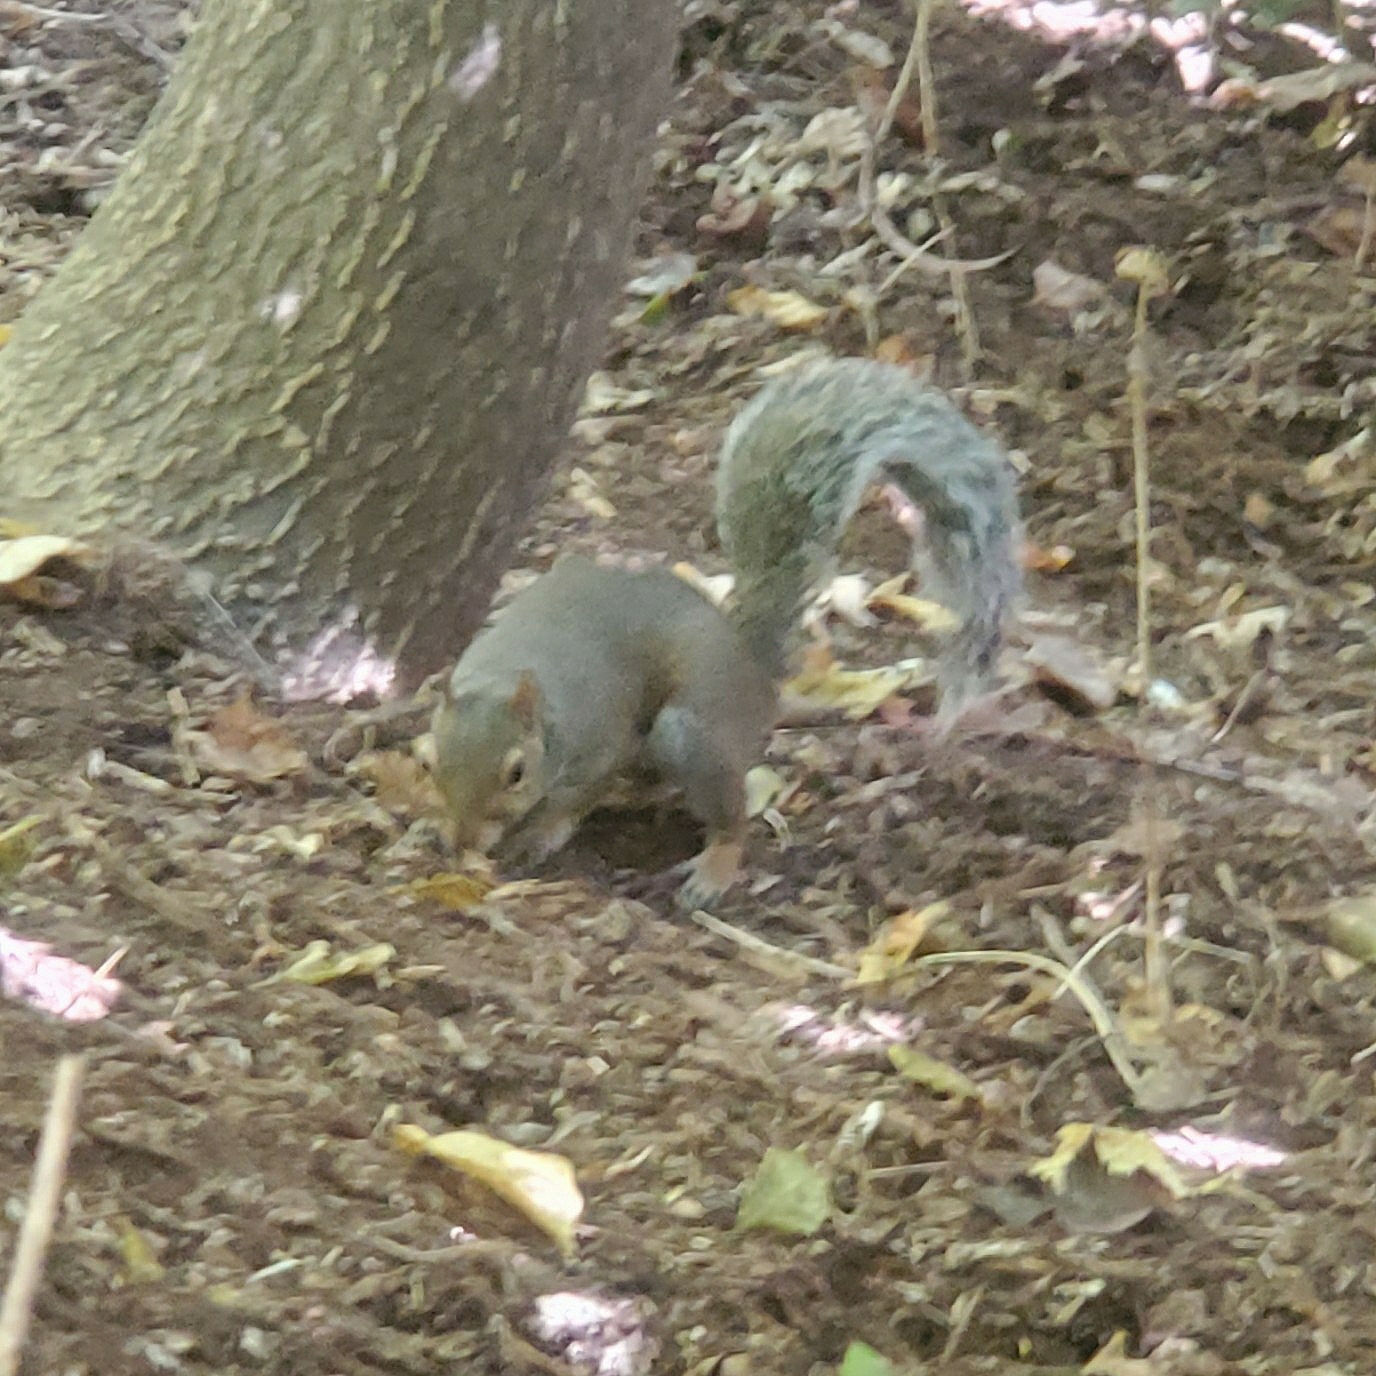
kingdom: Animalia
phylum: Chordata
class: Mammalia
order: Rodentia
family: Sciuridae
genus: Sciurus
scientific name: Sciurus carolinensis
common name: Eastern gray squirrel
